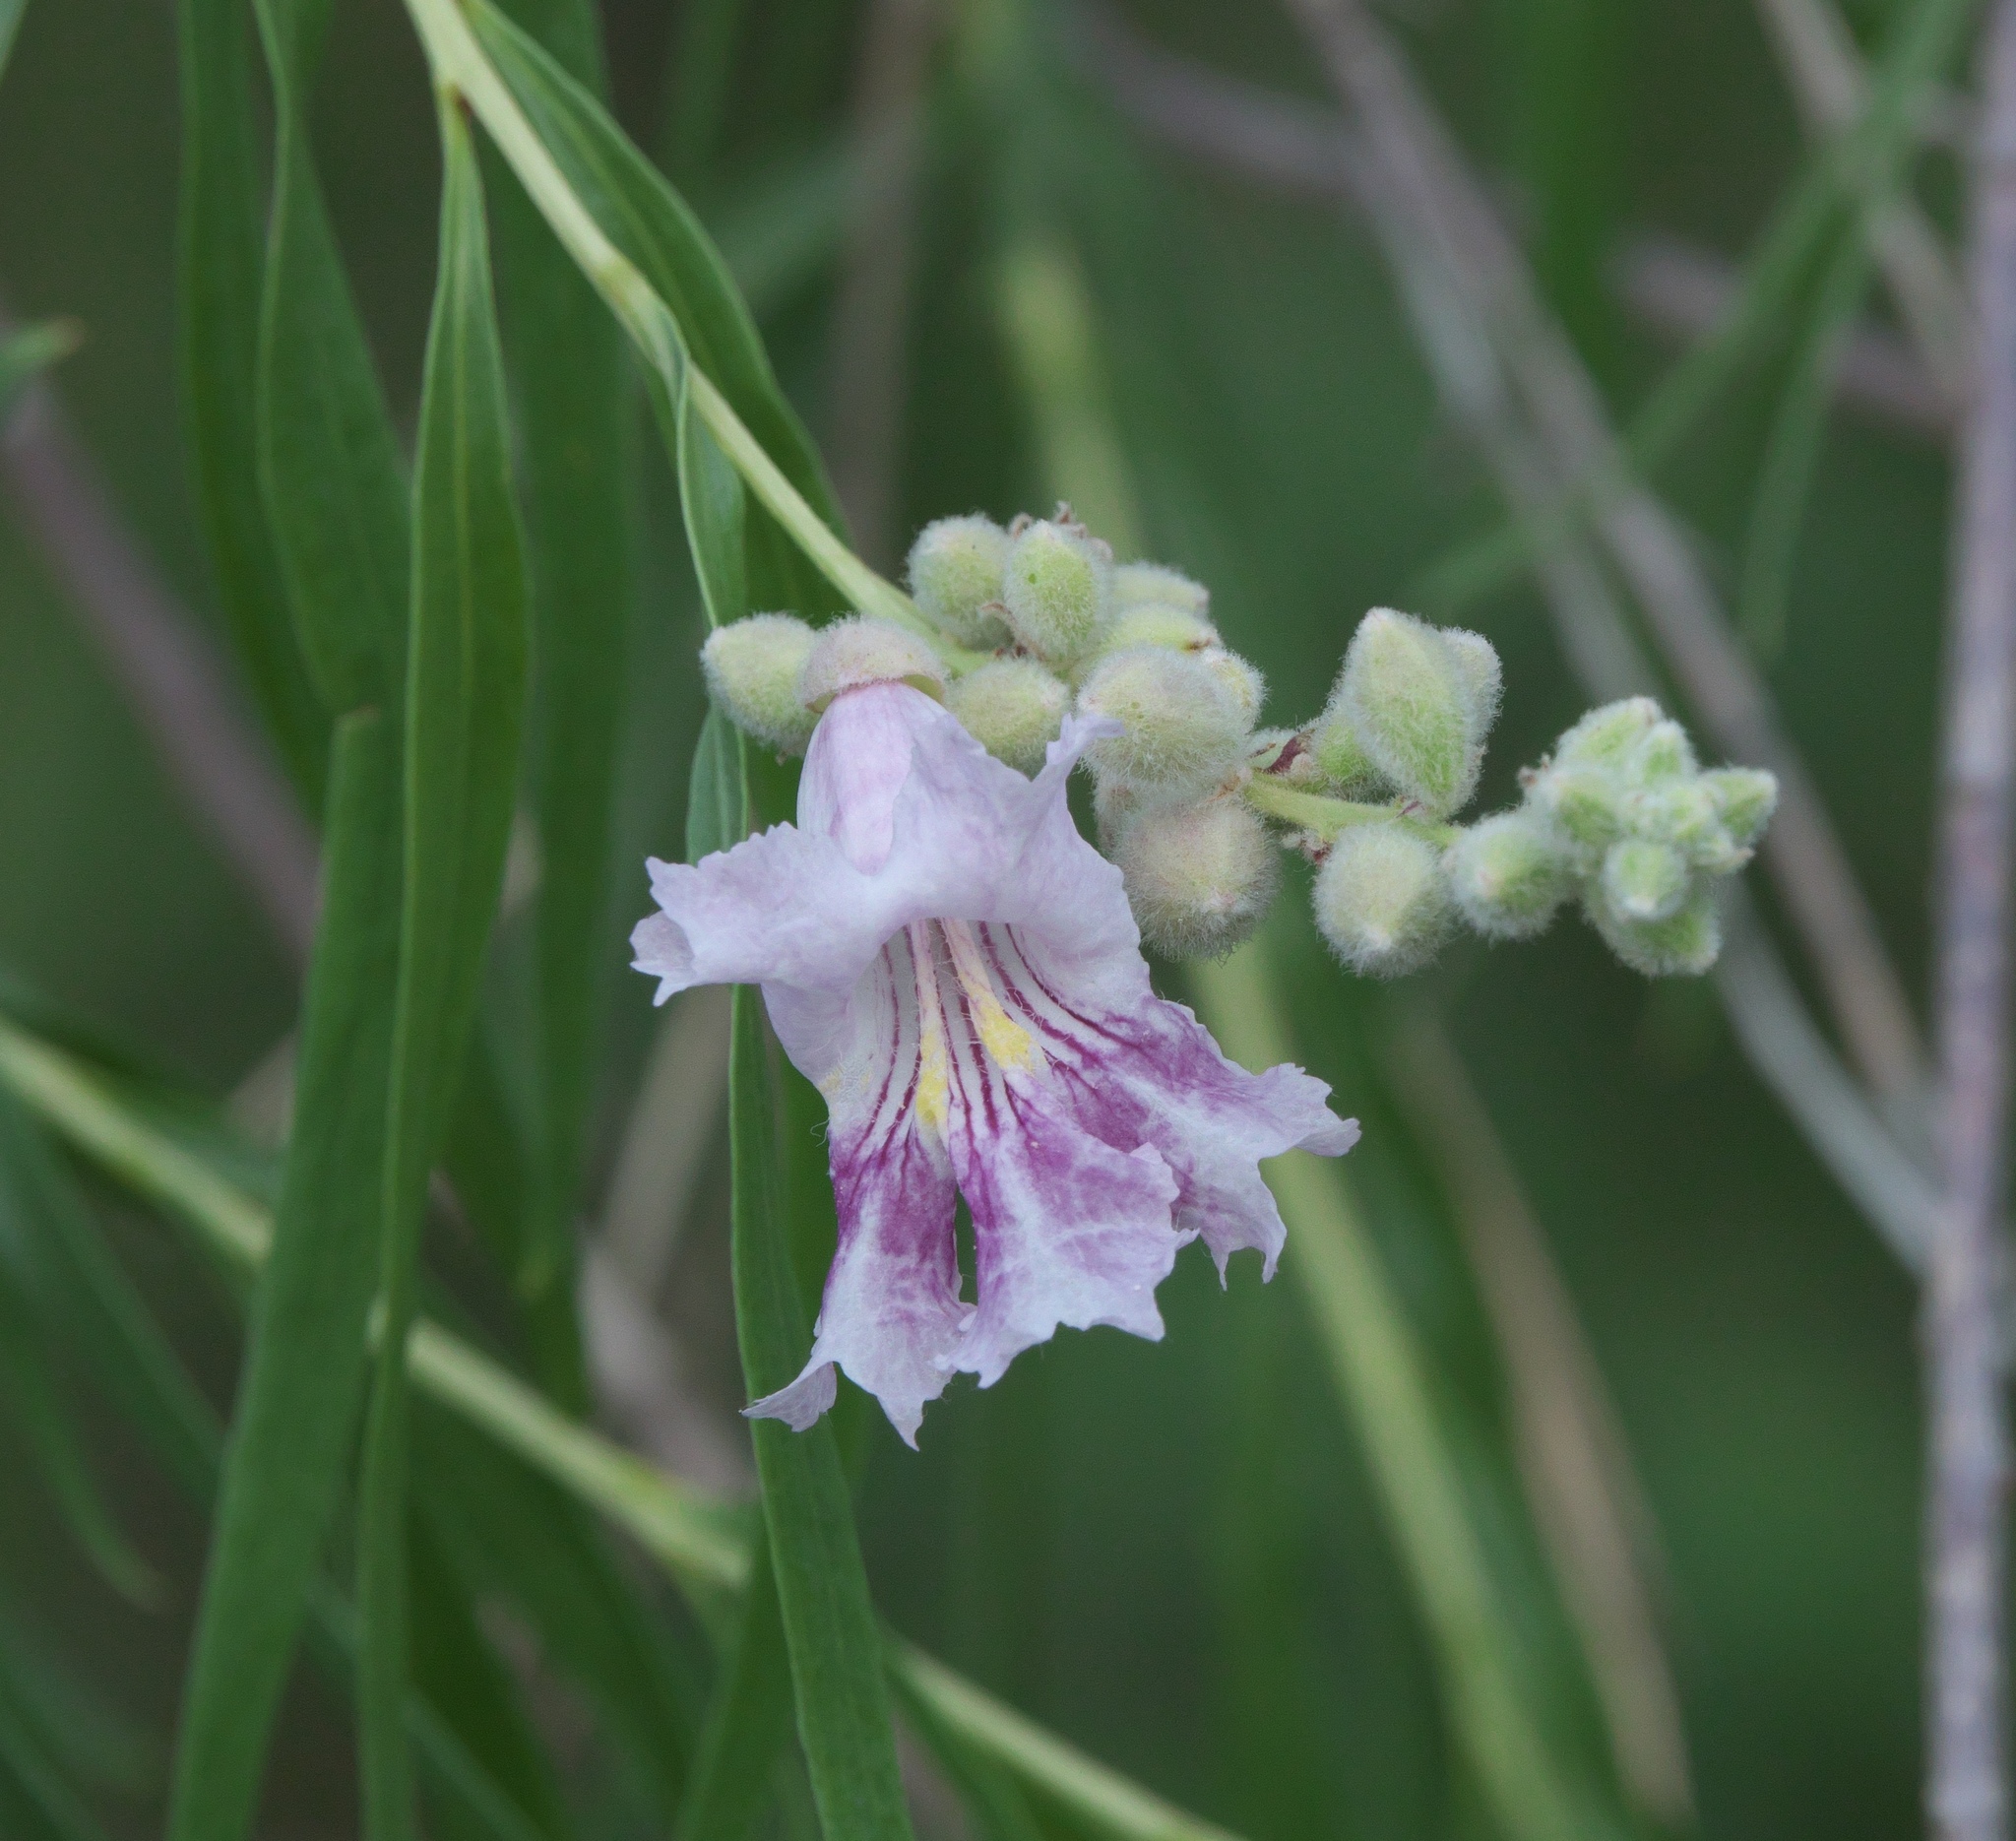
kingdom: Plantae
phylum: Tracheophyta
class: Magnoliopsida
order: Lamiales
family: Bignoniaceae
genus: Chilopsis
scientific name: Chilopsis linearis
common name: Desert-willow
